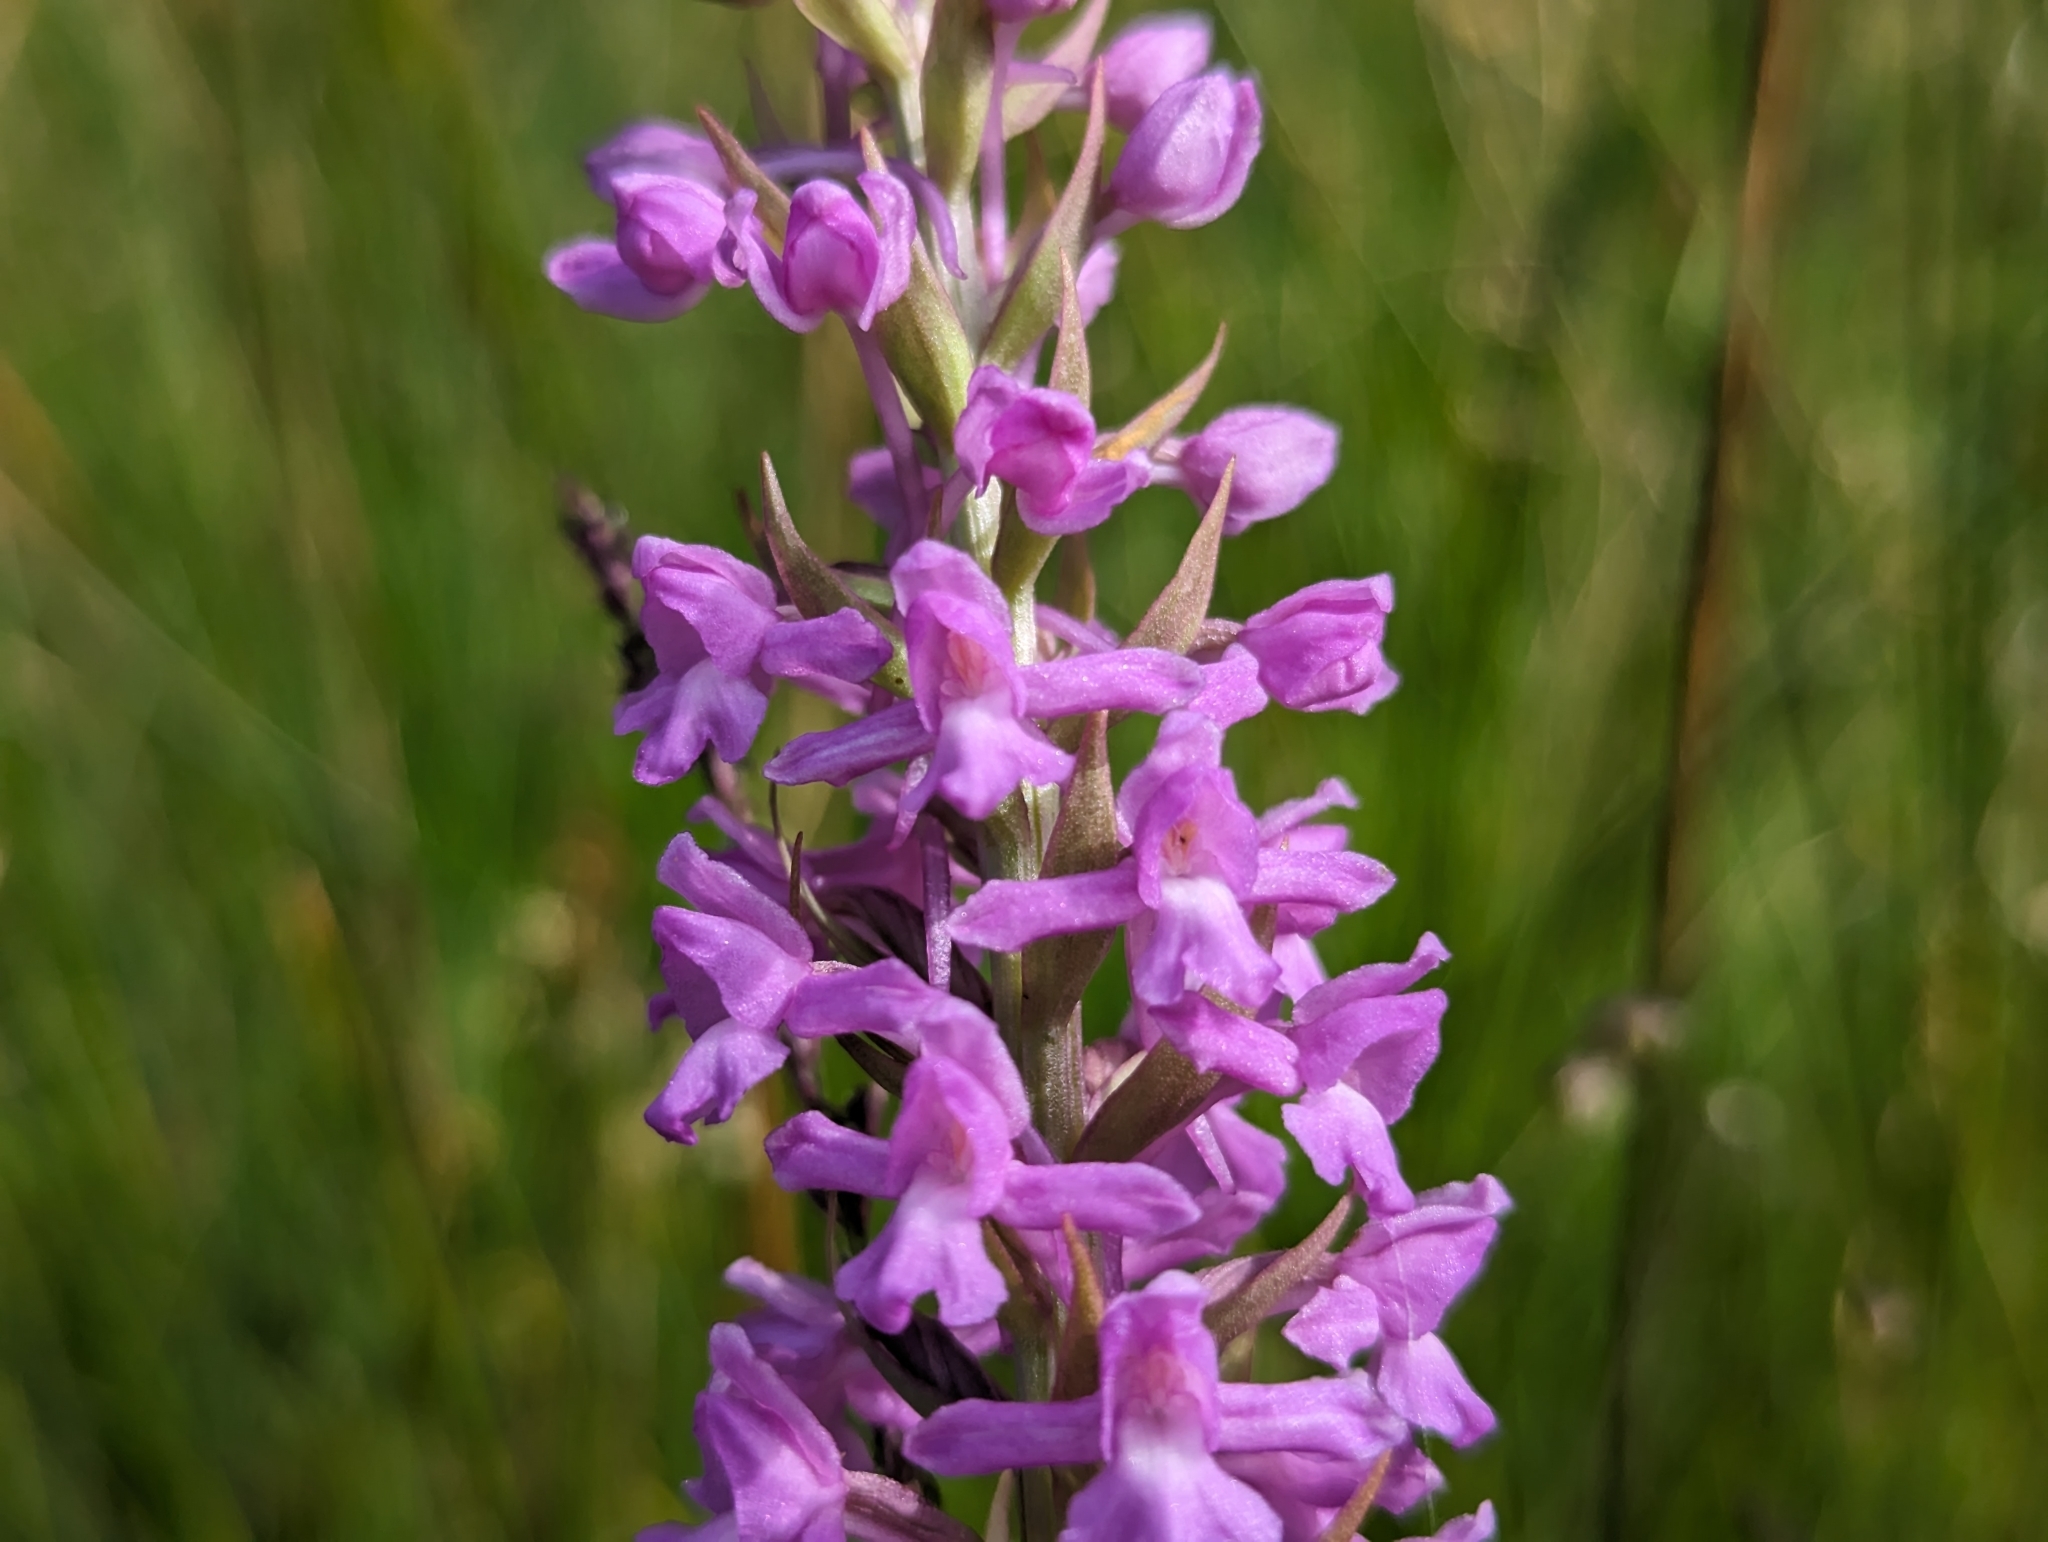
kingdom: Plantae
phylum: Tracheophyta
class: Liliopsida
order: Asparagales
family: Orchidaceae
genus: Gymnadenia
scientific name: Gymnadenia conopsea
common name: Fragrant orchid
